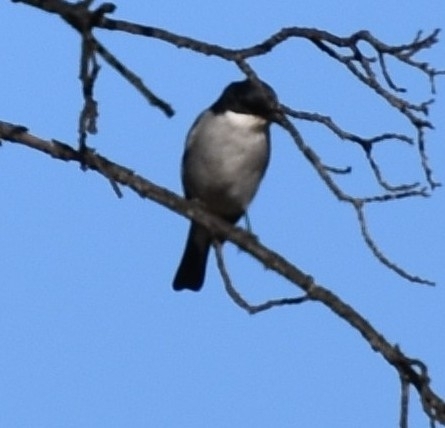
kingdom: Animalia
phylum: Chordata
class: Aves
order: Passeriformes
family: Muscicapidae
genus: Sigelus
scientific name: Sigelus silens
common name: Fiscal flycatcher
